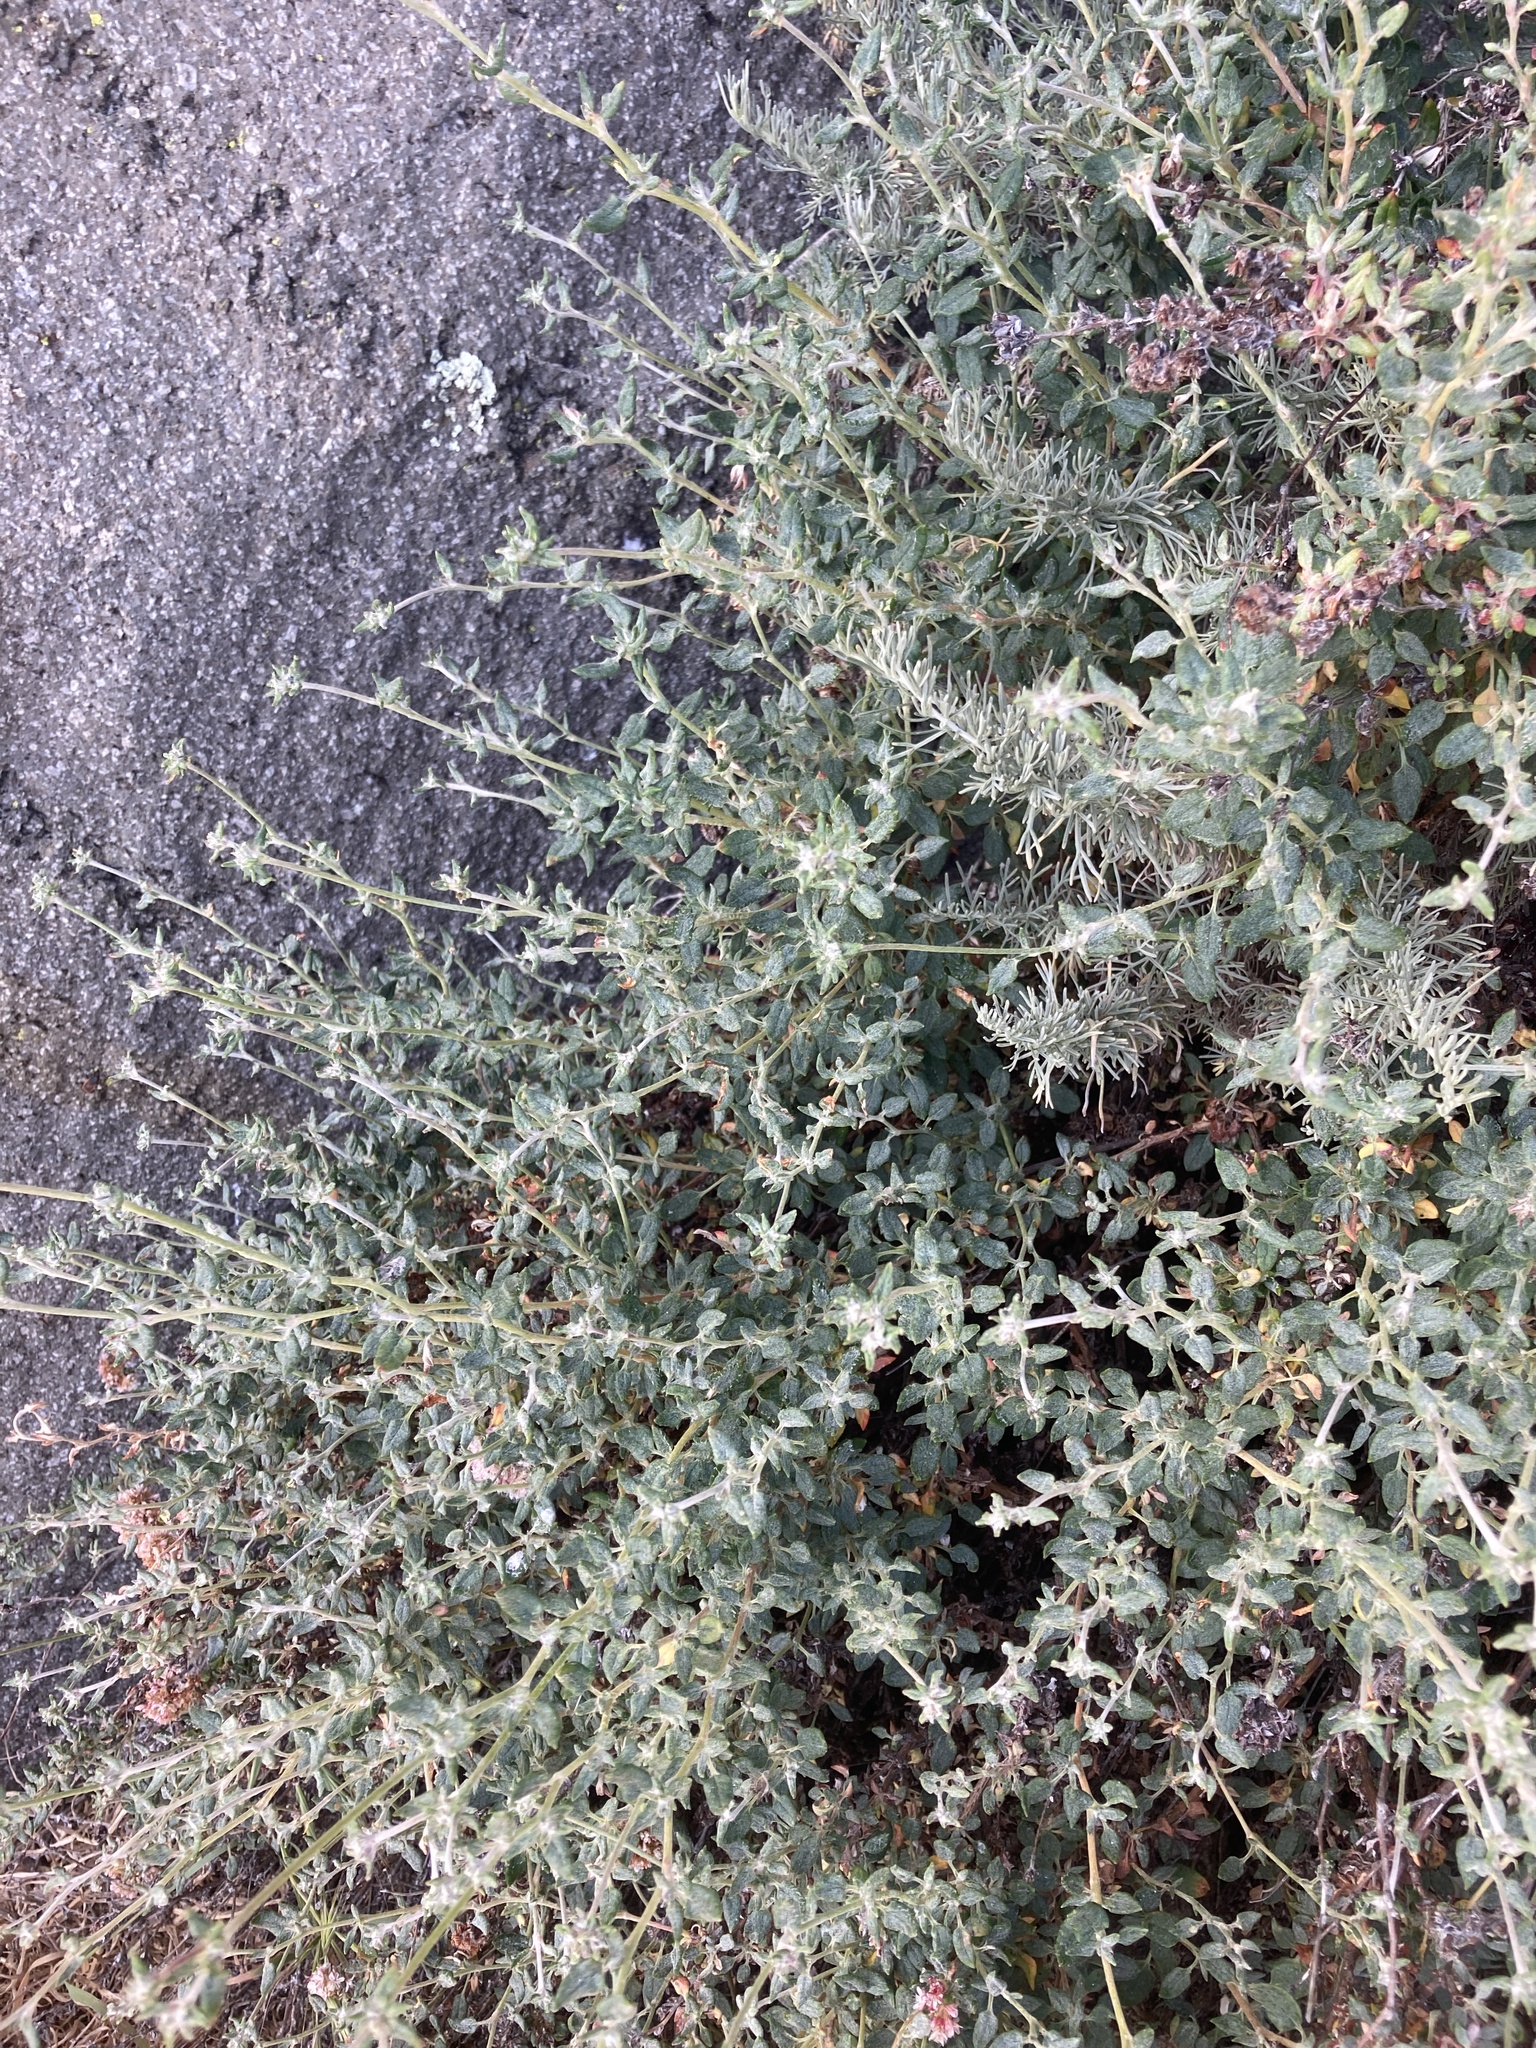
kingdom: Plantae
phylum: Tracheophyta
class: Magnoliopsida
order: Caryophyllales
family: Polygonaceae
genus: Eriogonum
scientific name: Eriogonum parvifolium
